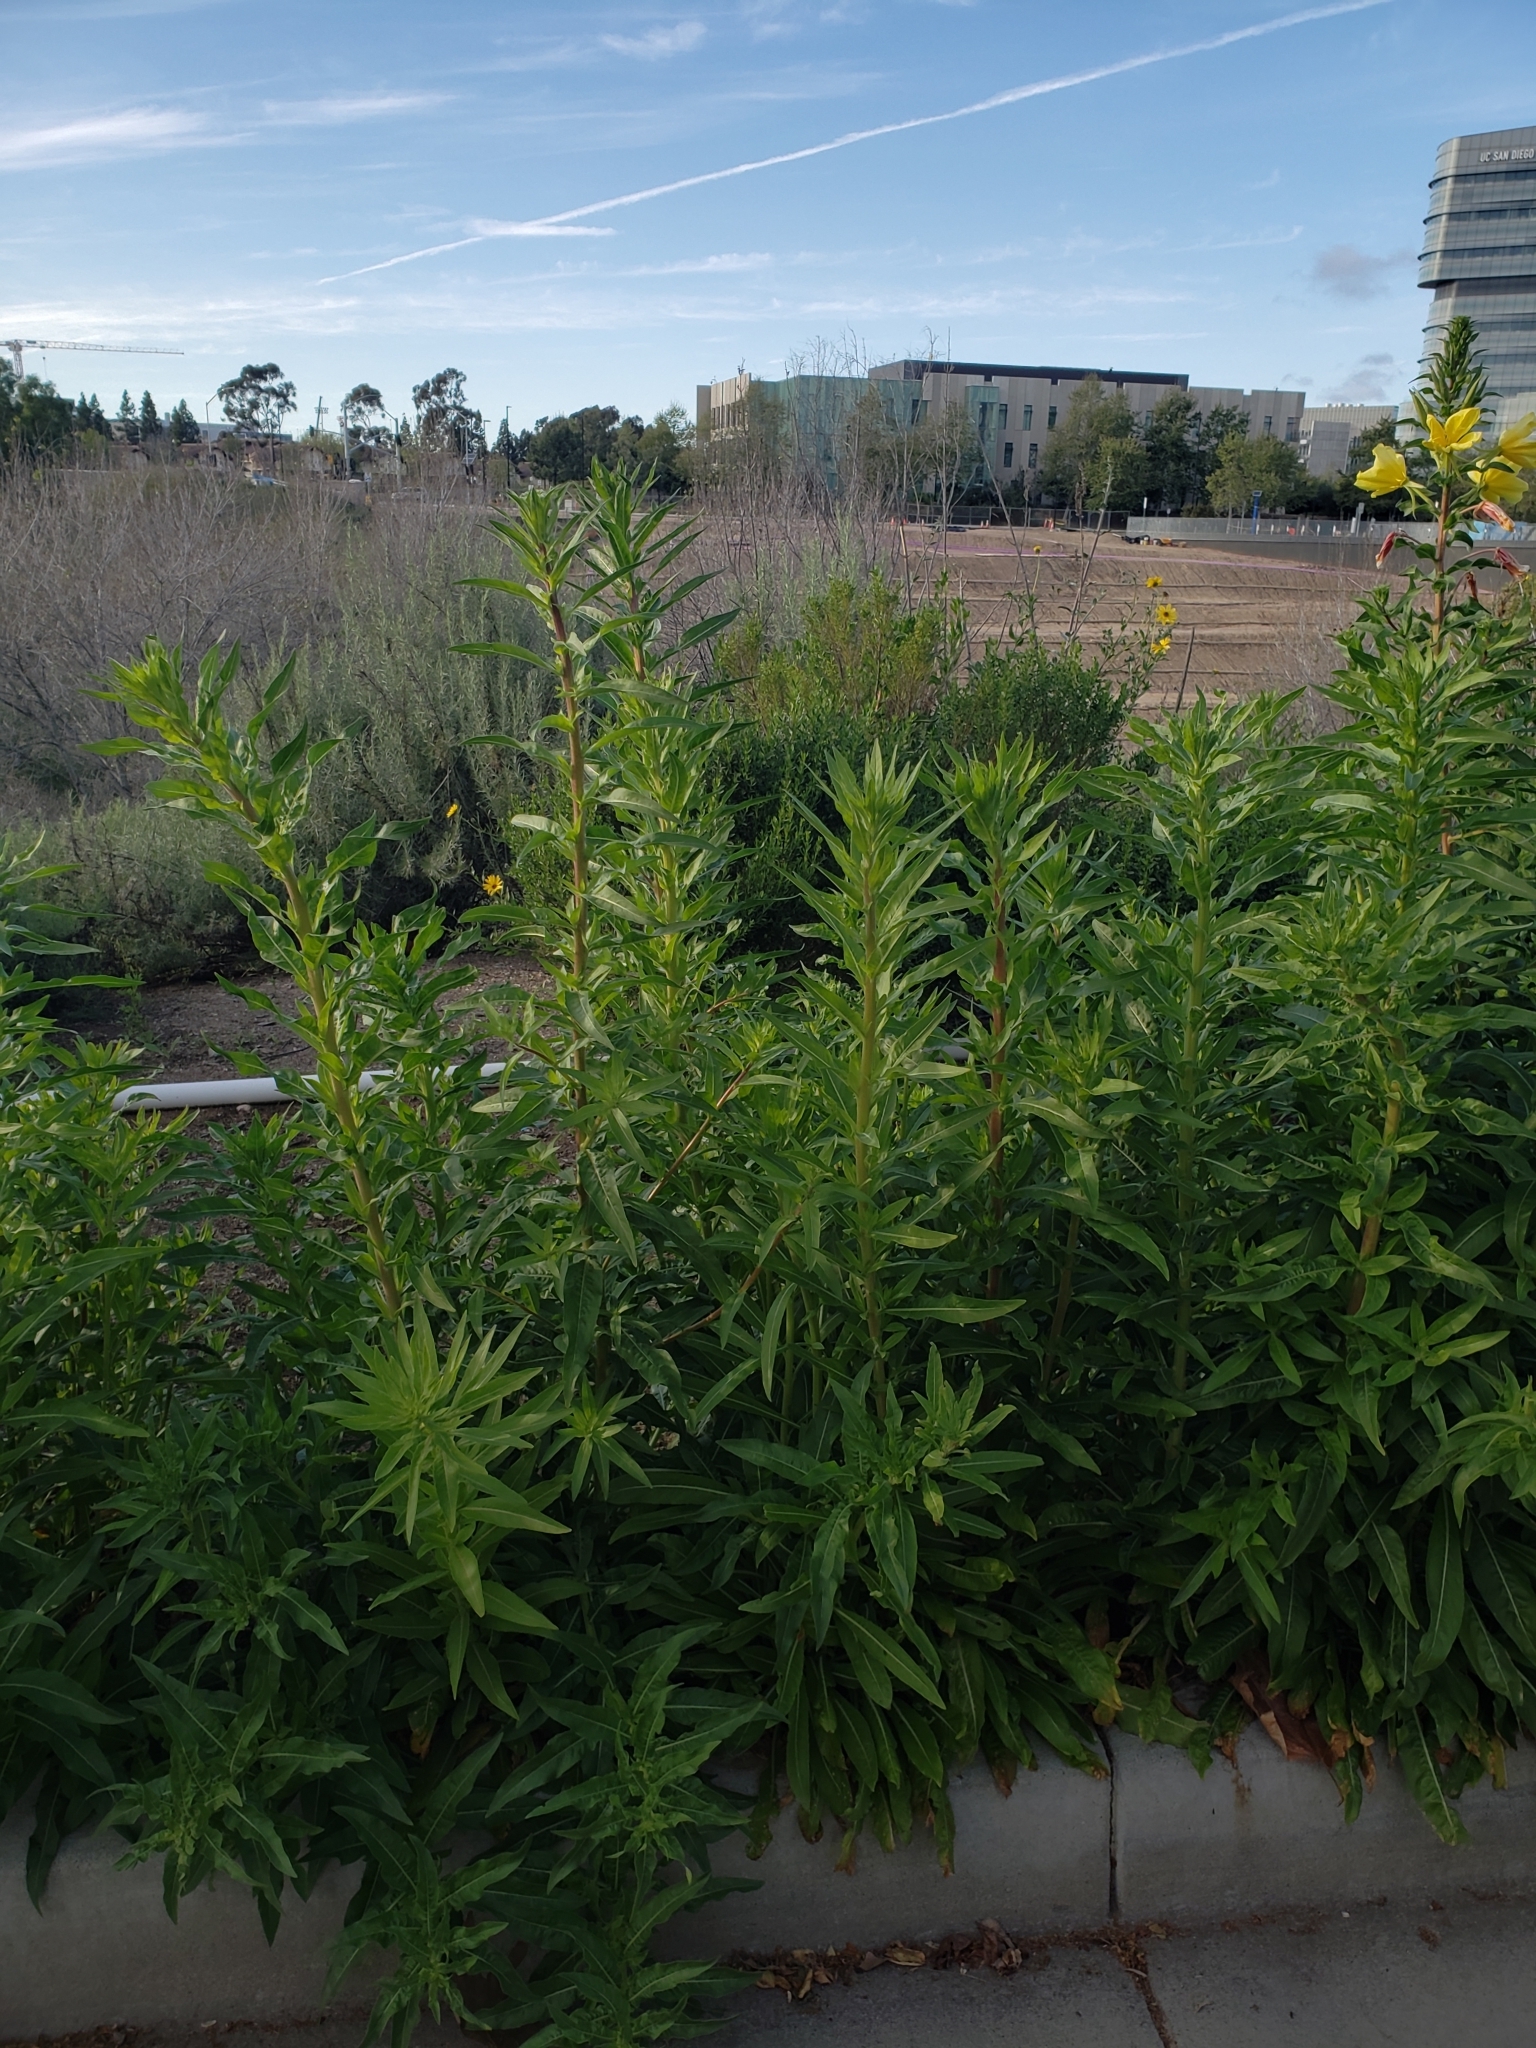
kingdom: Plantae
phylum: Tracheophyta
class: Magnoliopsida
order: Myrtales
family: Onagraceae
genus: Oenothera
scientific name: Oenothera elata
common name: Hooker's evening-primrose
